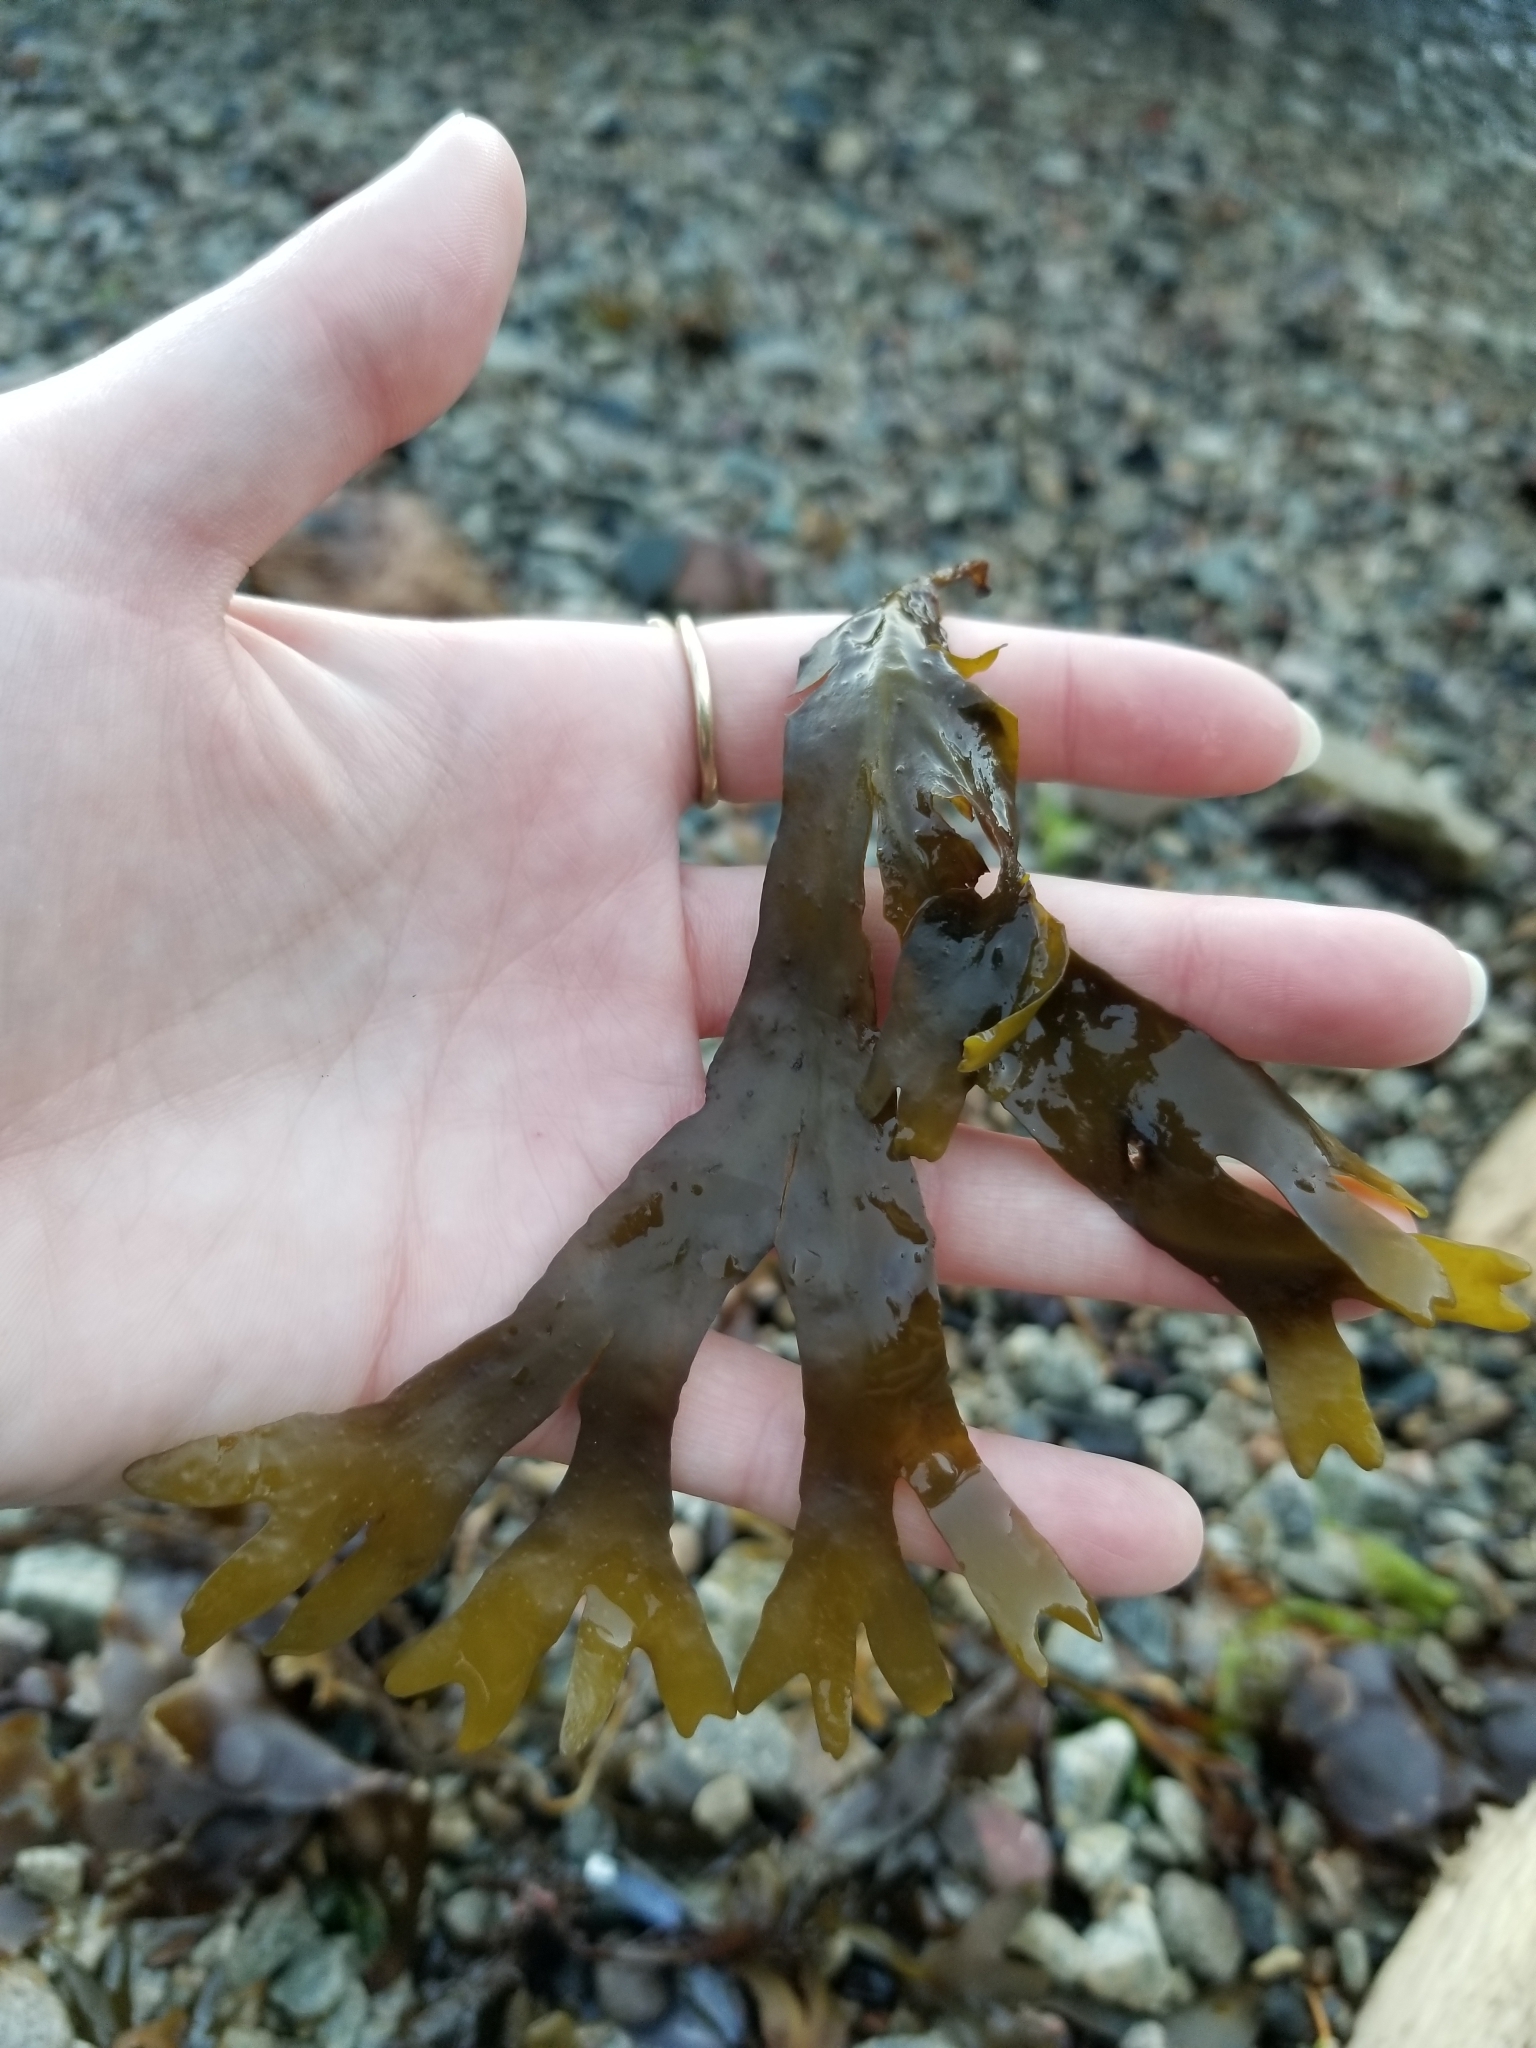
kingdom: Chromista
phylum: Ochrophyta
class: Phaeophyceae
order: Fucales
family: Fucaceae
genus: Fucus
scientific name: Fucus distichus
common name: Rockweed
